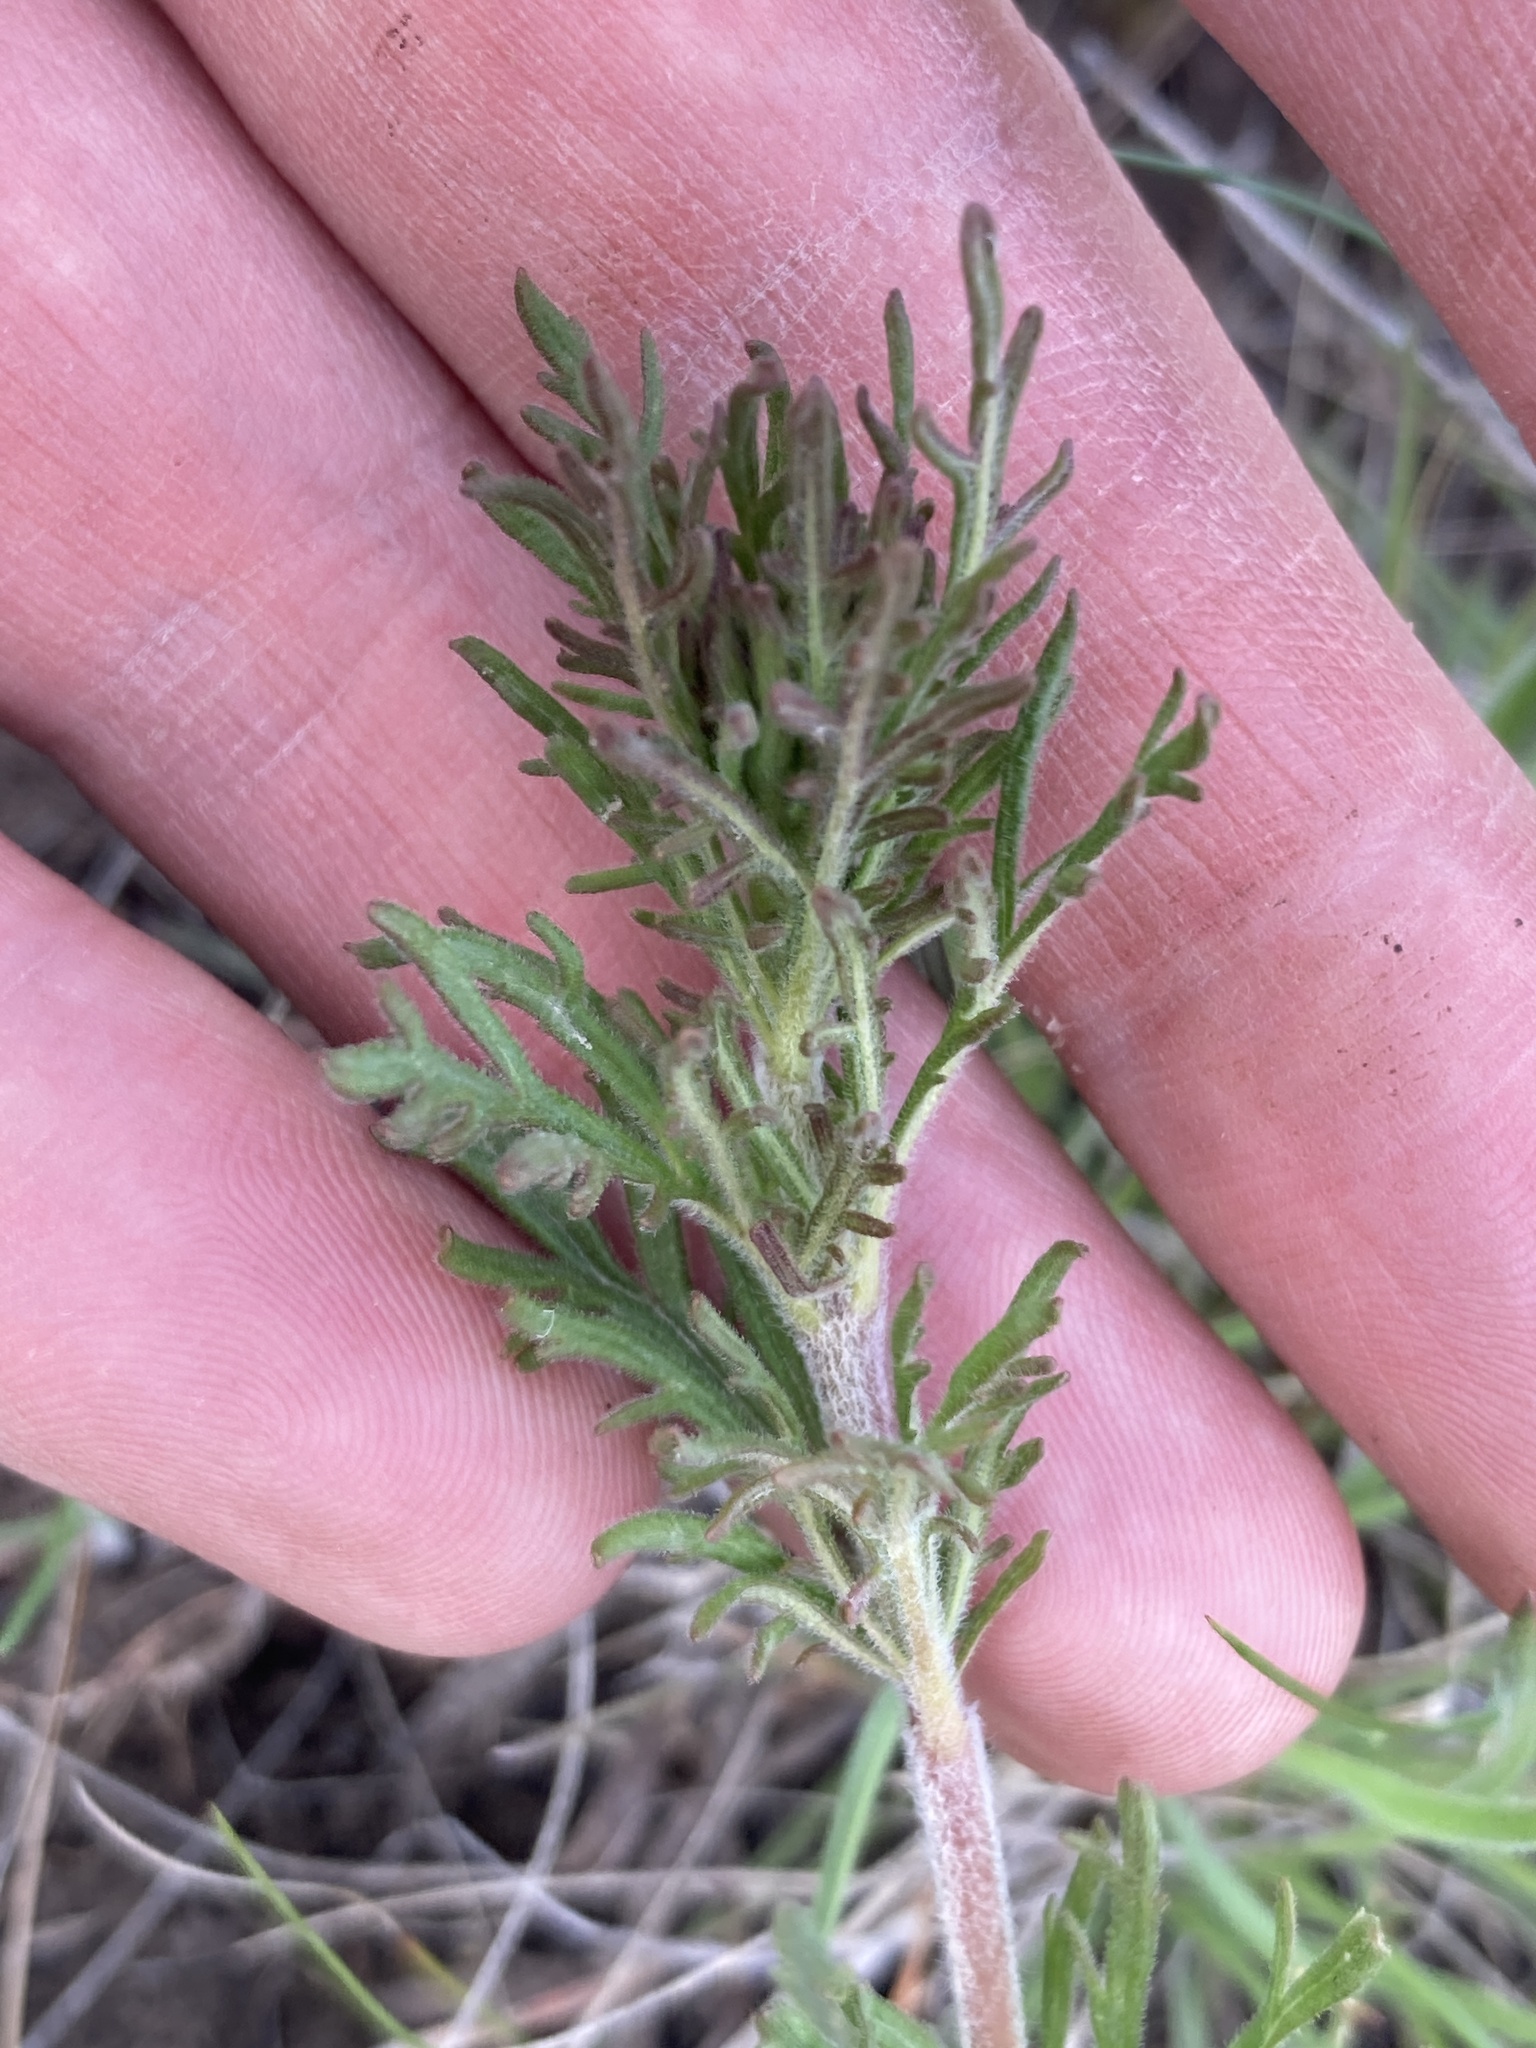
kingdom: Plantae
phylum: Tracheophyta
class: Magnoliopsida
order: Lamiales
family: Plantaginaceae
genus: Veronica
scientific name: Veronica austriaca
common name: Large speedwell
